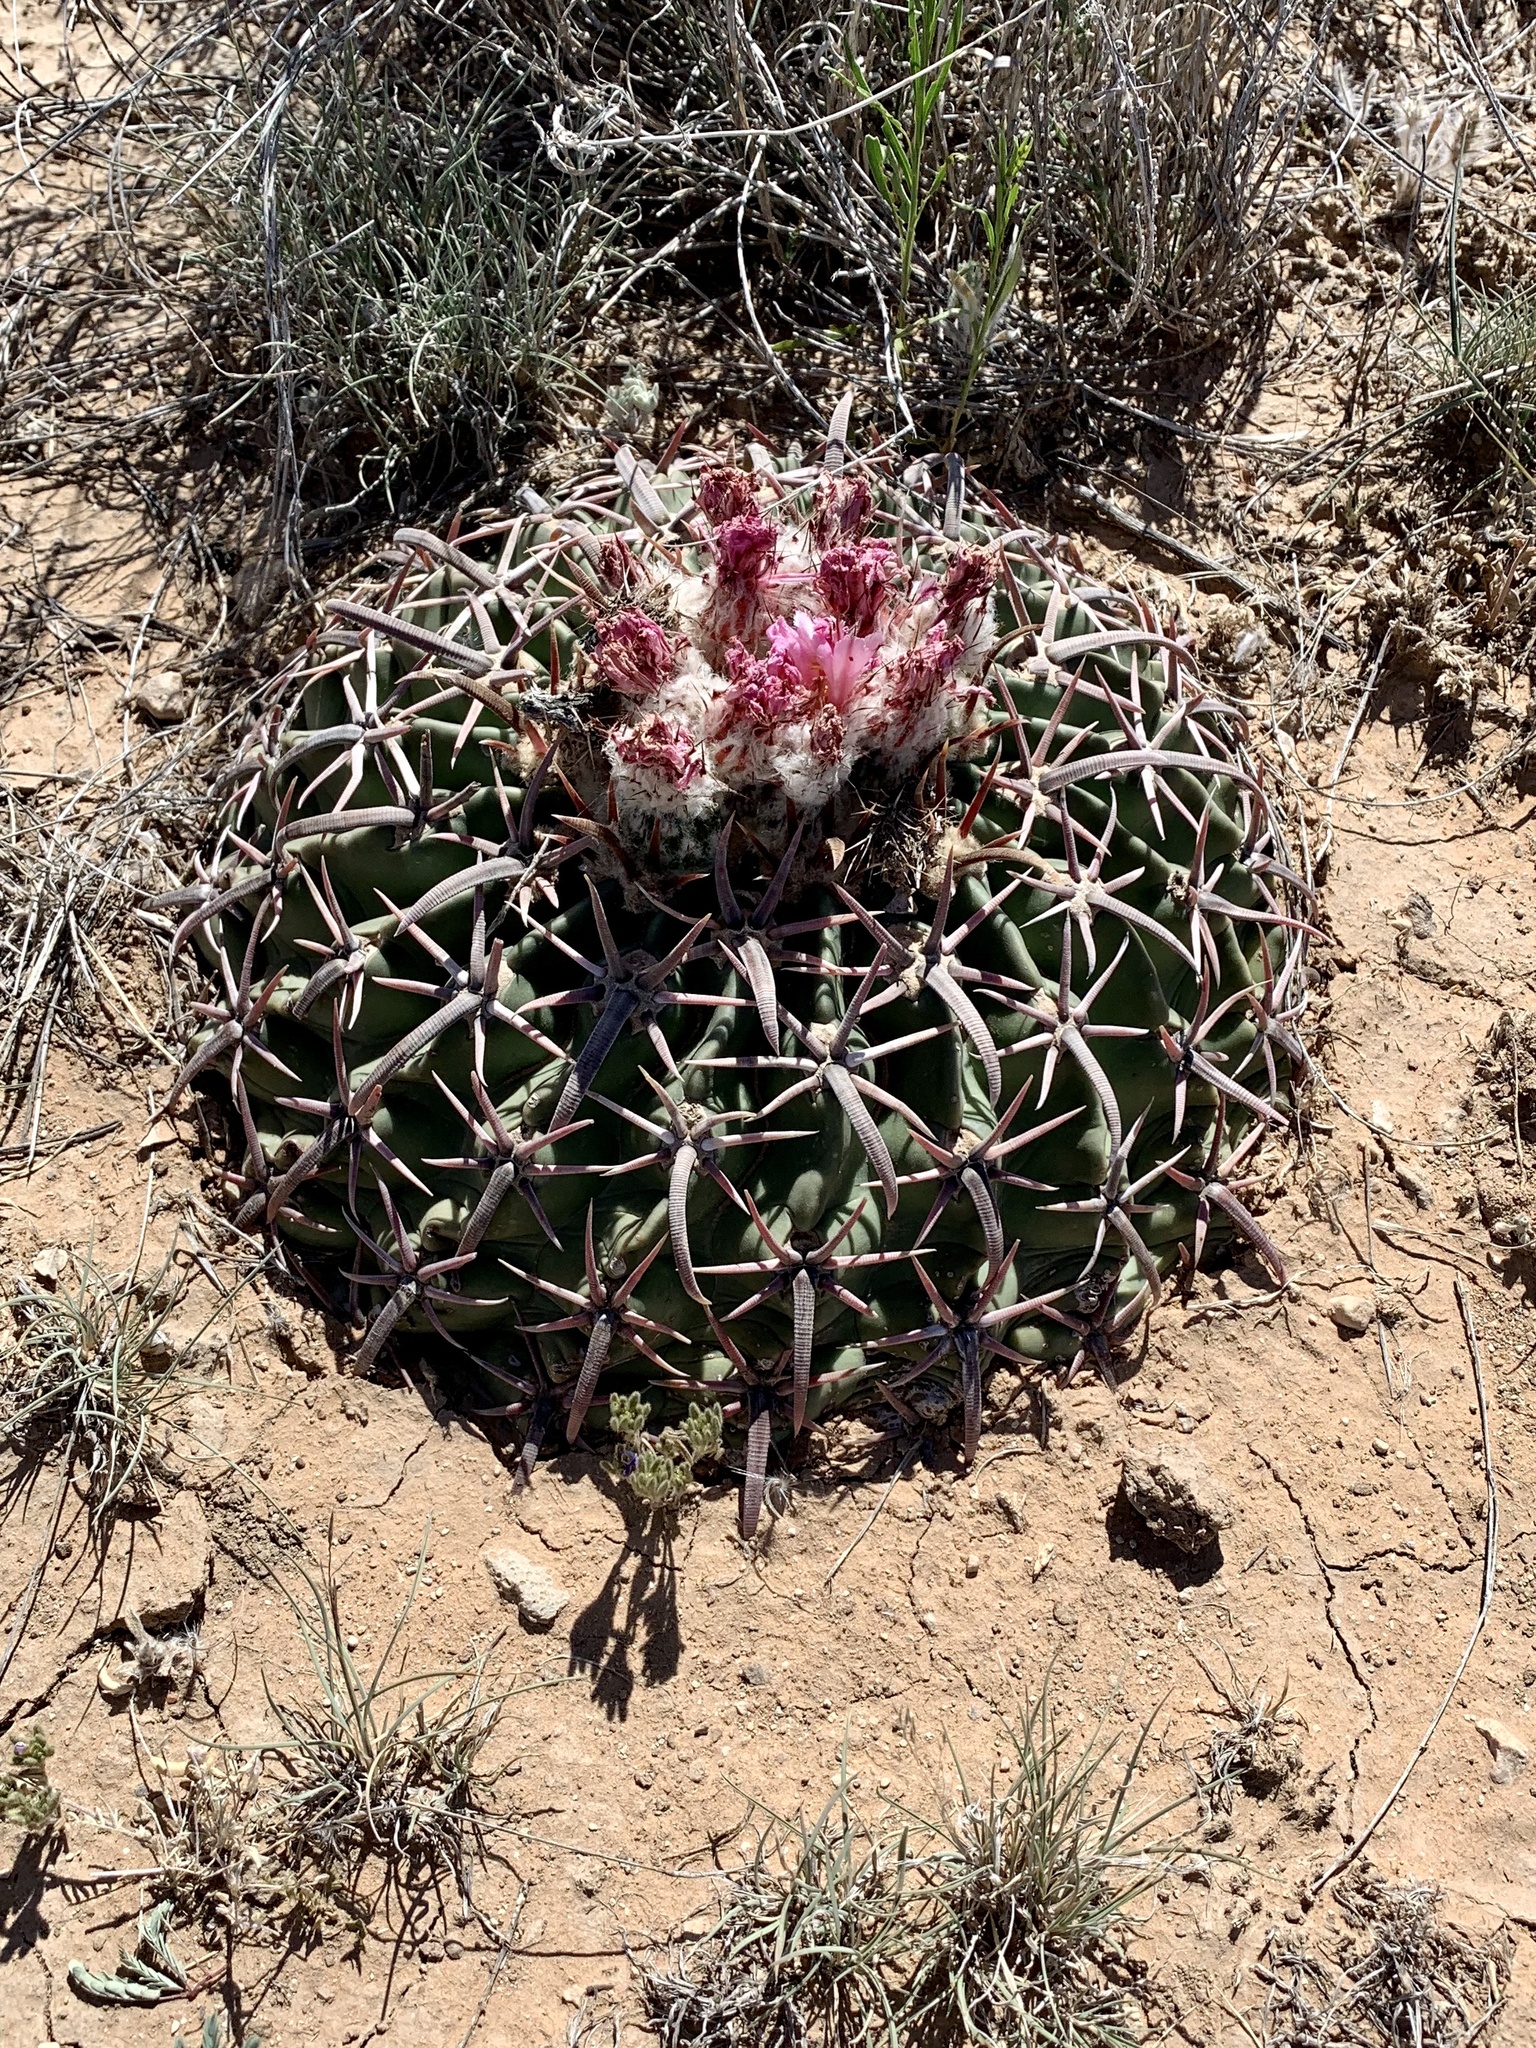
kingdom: Plantae
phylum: Tracheophyta
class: Magnoliopsida
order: Caryophyllales
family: Cactaceae
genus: Echinocactus
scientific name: Echinocactus texensis
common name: Devil's pincushion
